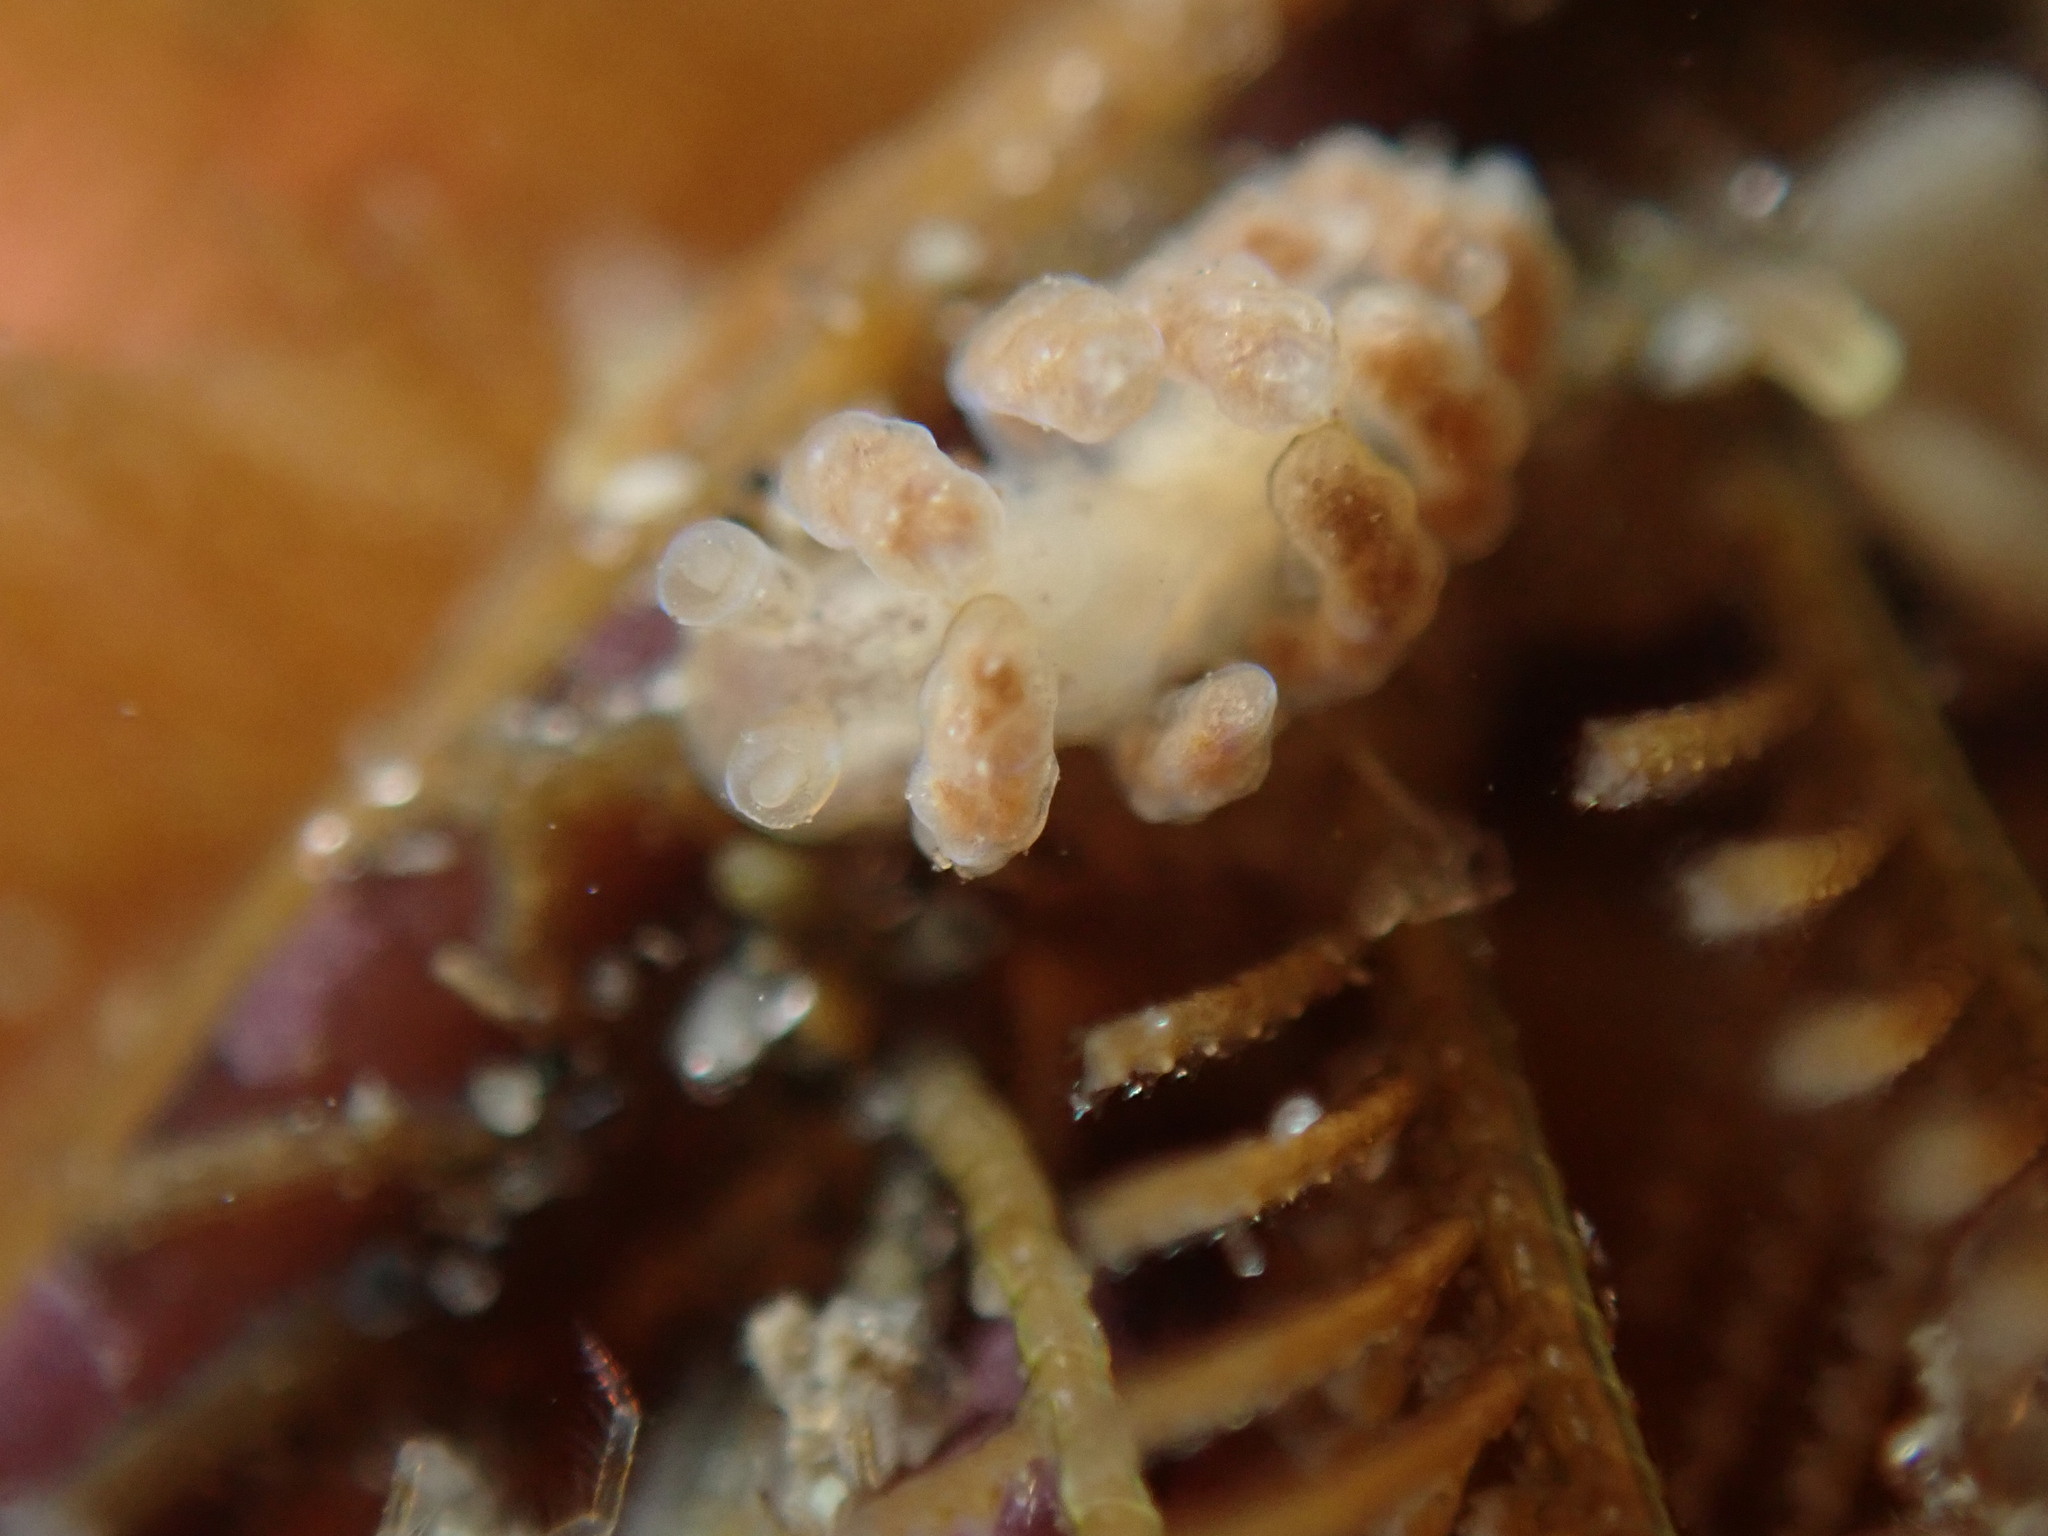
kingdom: Animalia
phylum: Mollusca
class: Gastropoda
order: Nudibranchia
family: Dotidae
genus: Doto
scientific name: Doto columbiana
